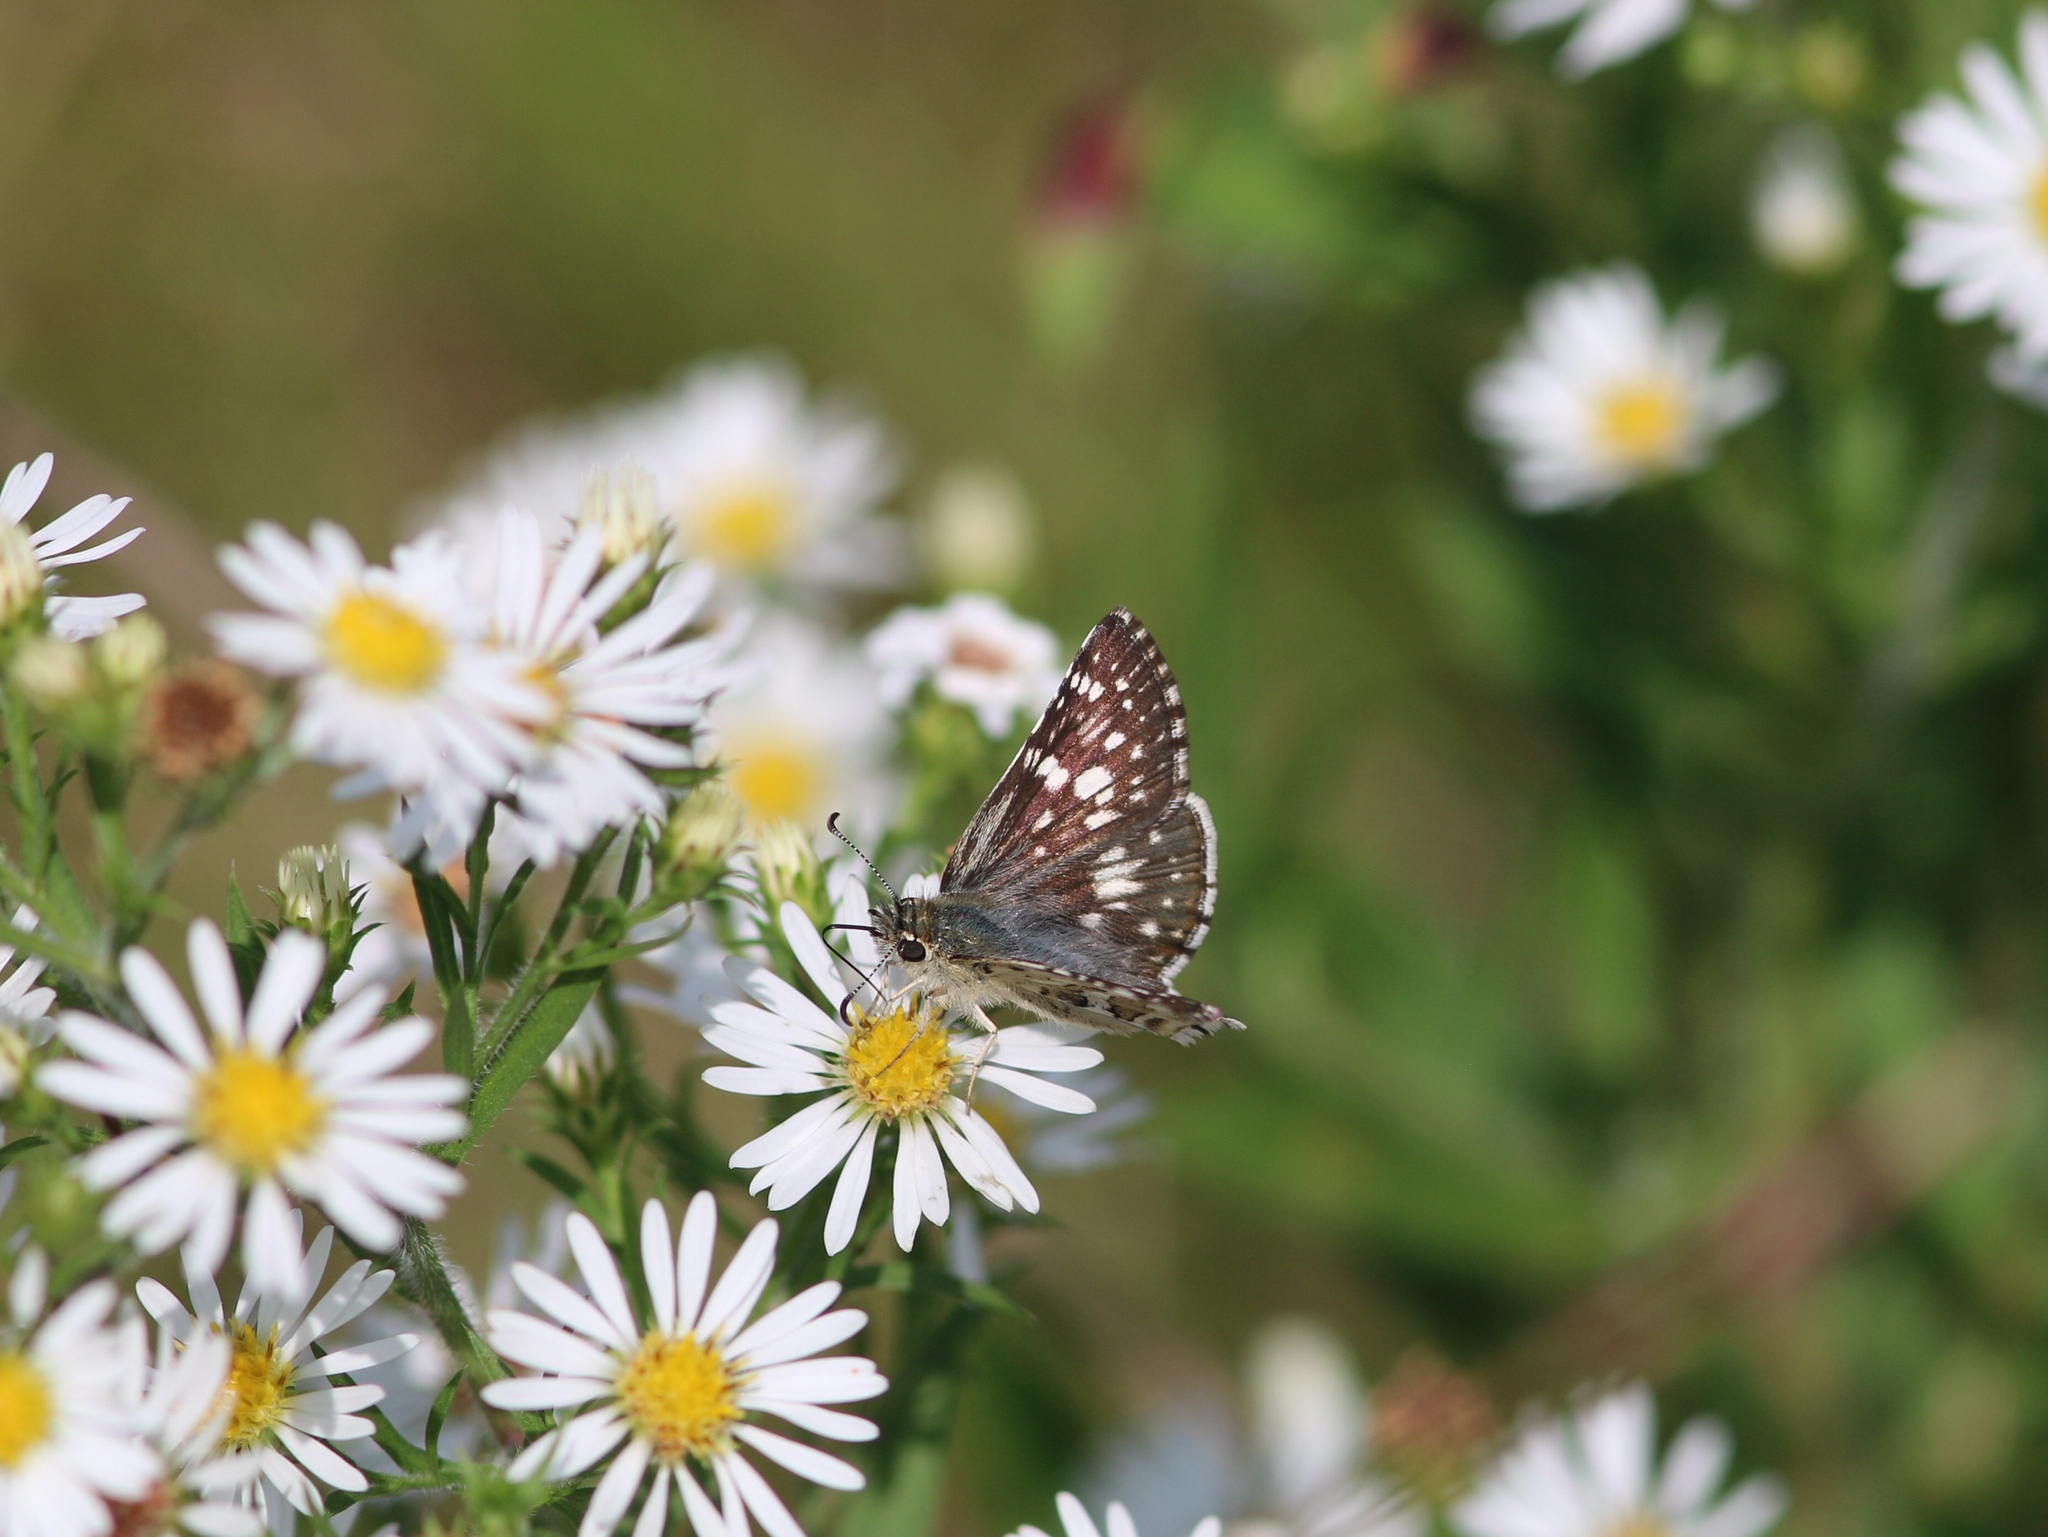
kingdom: Animalia
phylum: Arthropoda
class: Insecta
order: Lepidoptera
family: Hesperiidae
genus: Burnsius
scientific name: Burnsius communis
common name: Common checkered-skipper
